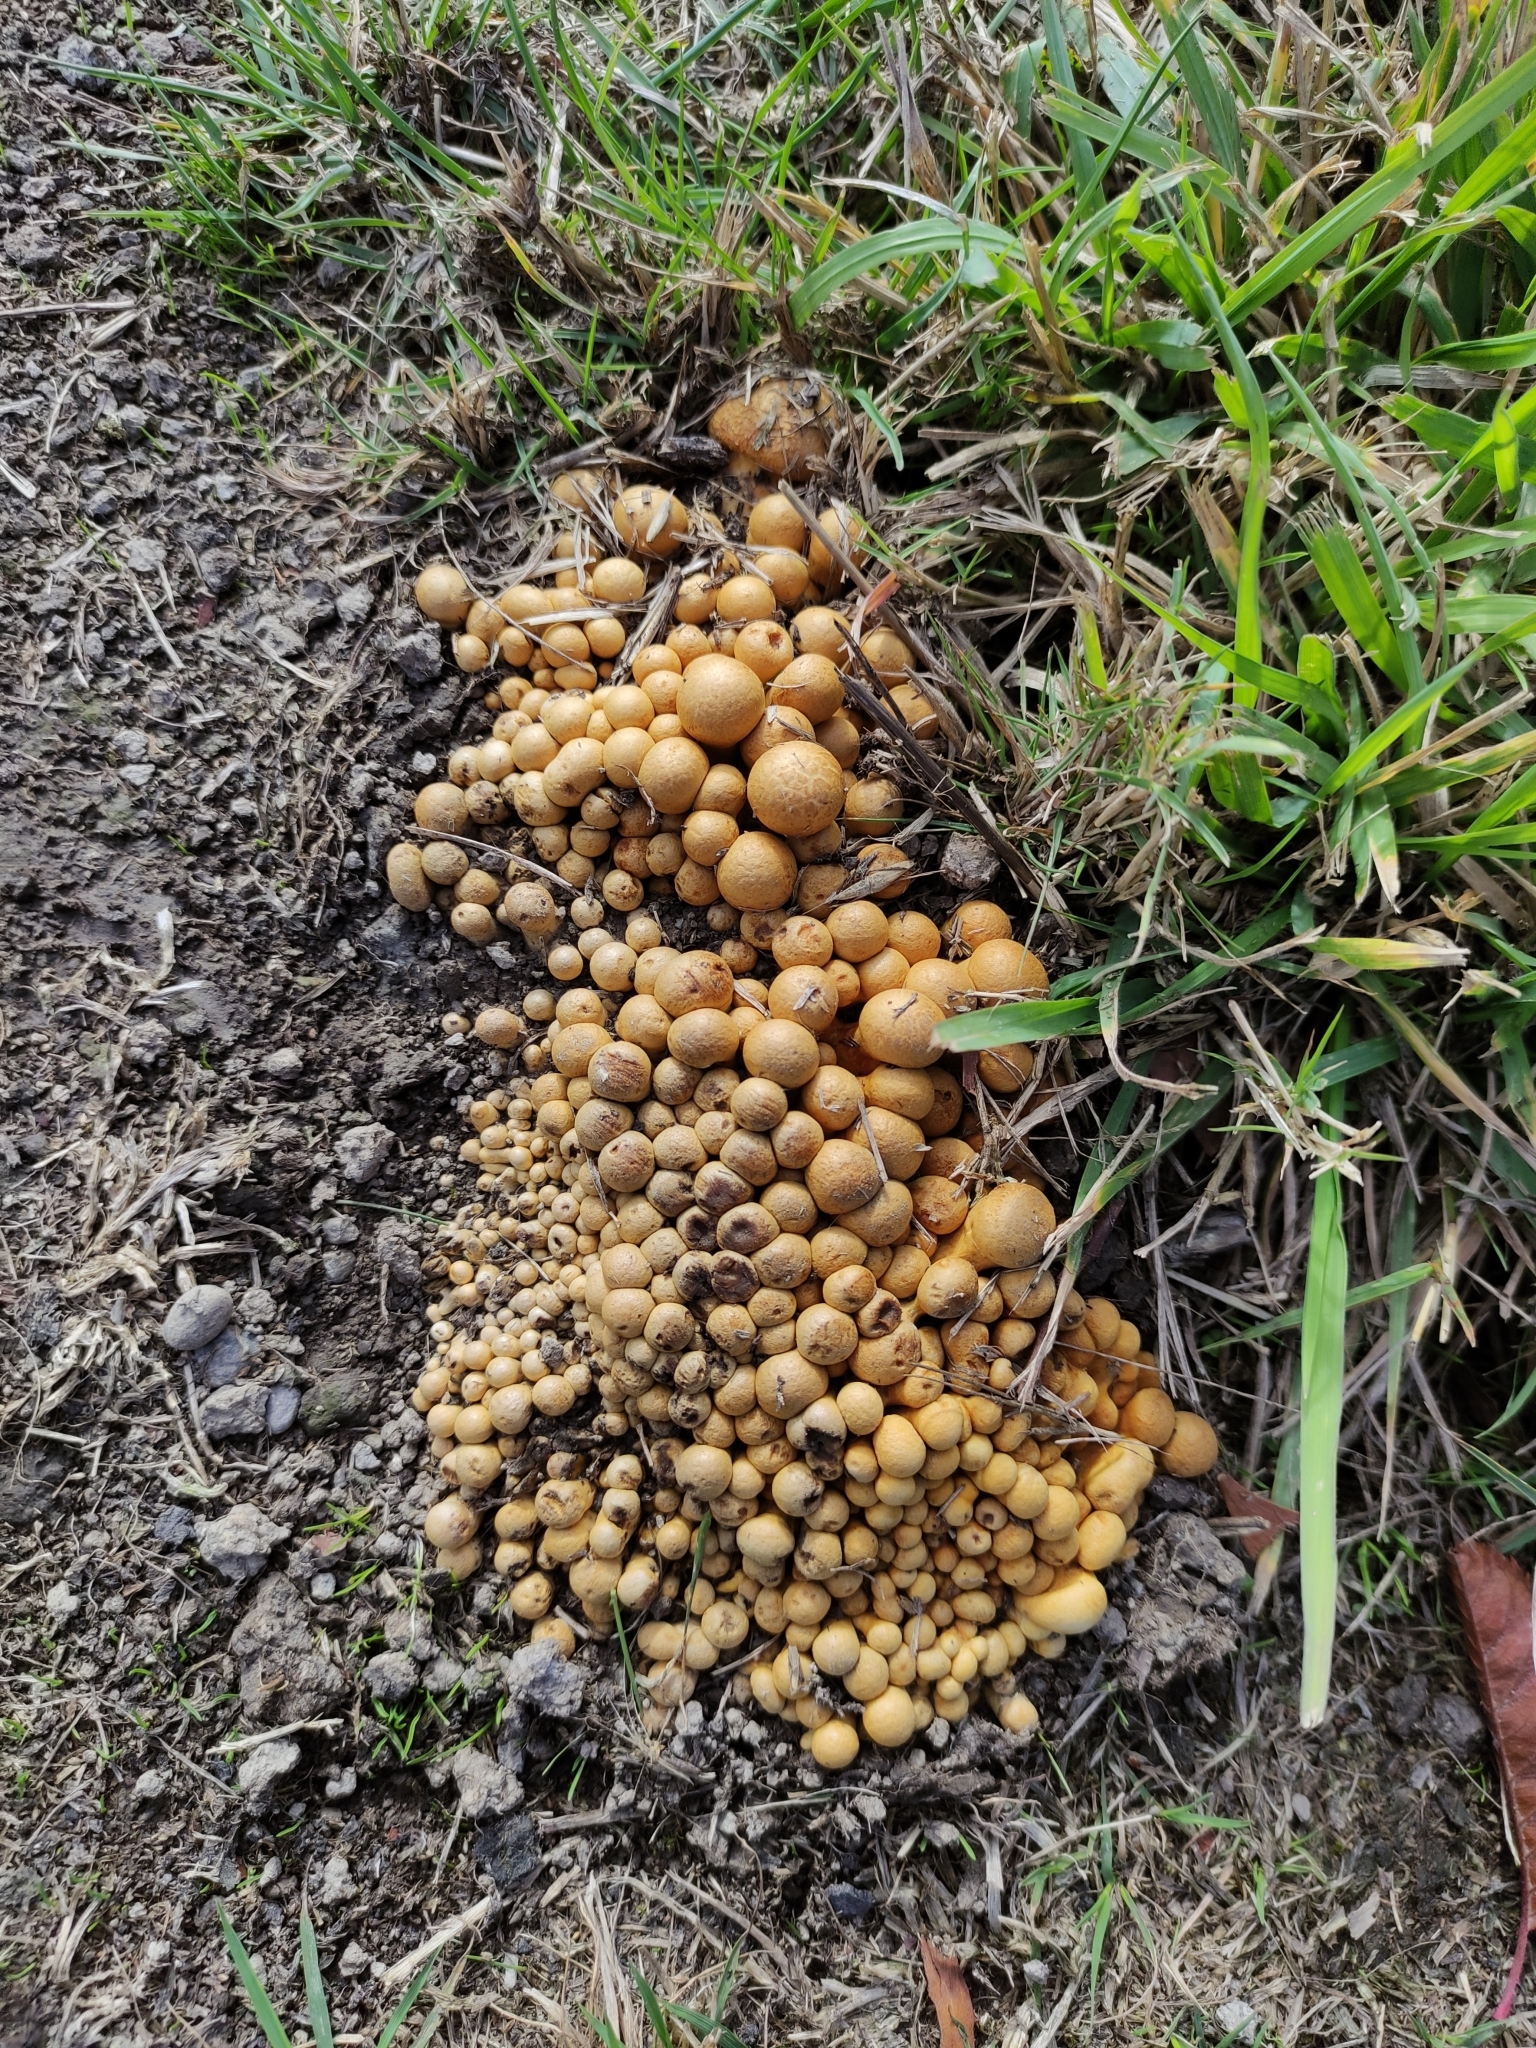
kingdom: Fungi
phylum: Basidiomycota
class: Agaricomycetes
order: Agaricales
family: Hymenogastraceae
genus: Gymnopilus
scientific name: Gymnopilus junonius
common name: Spectacular rustgill
